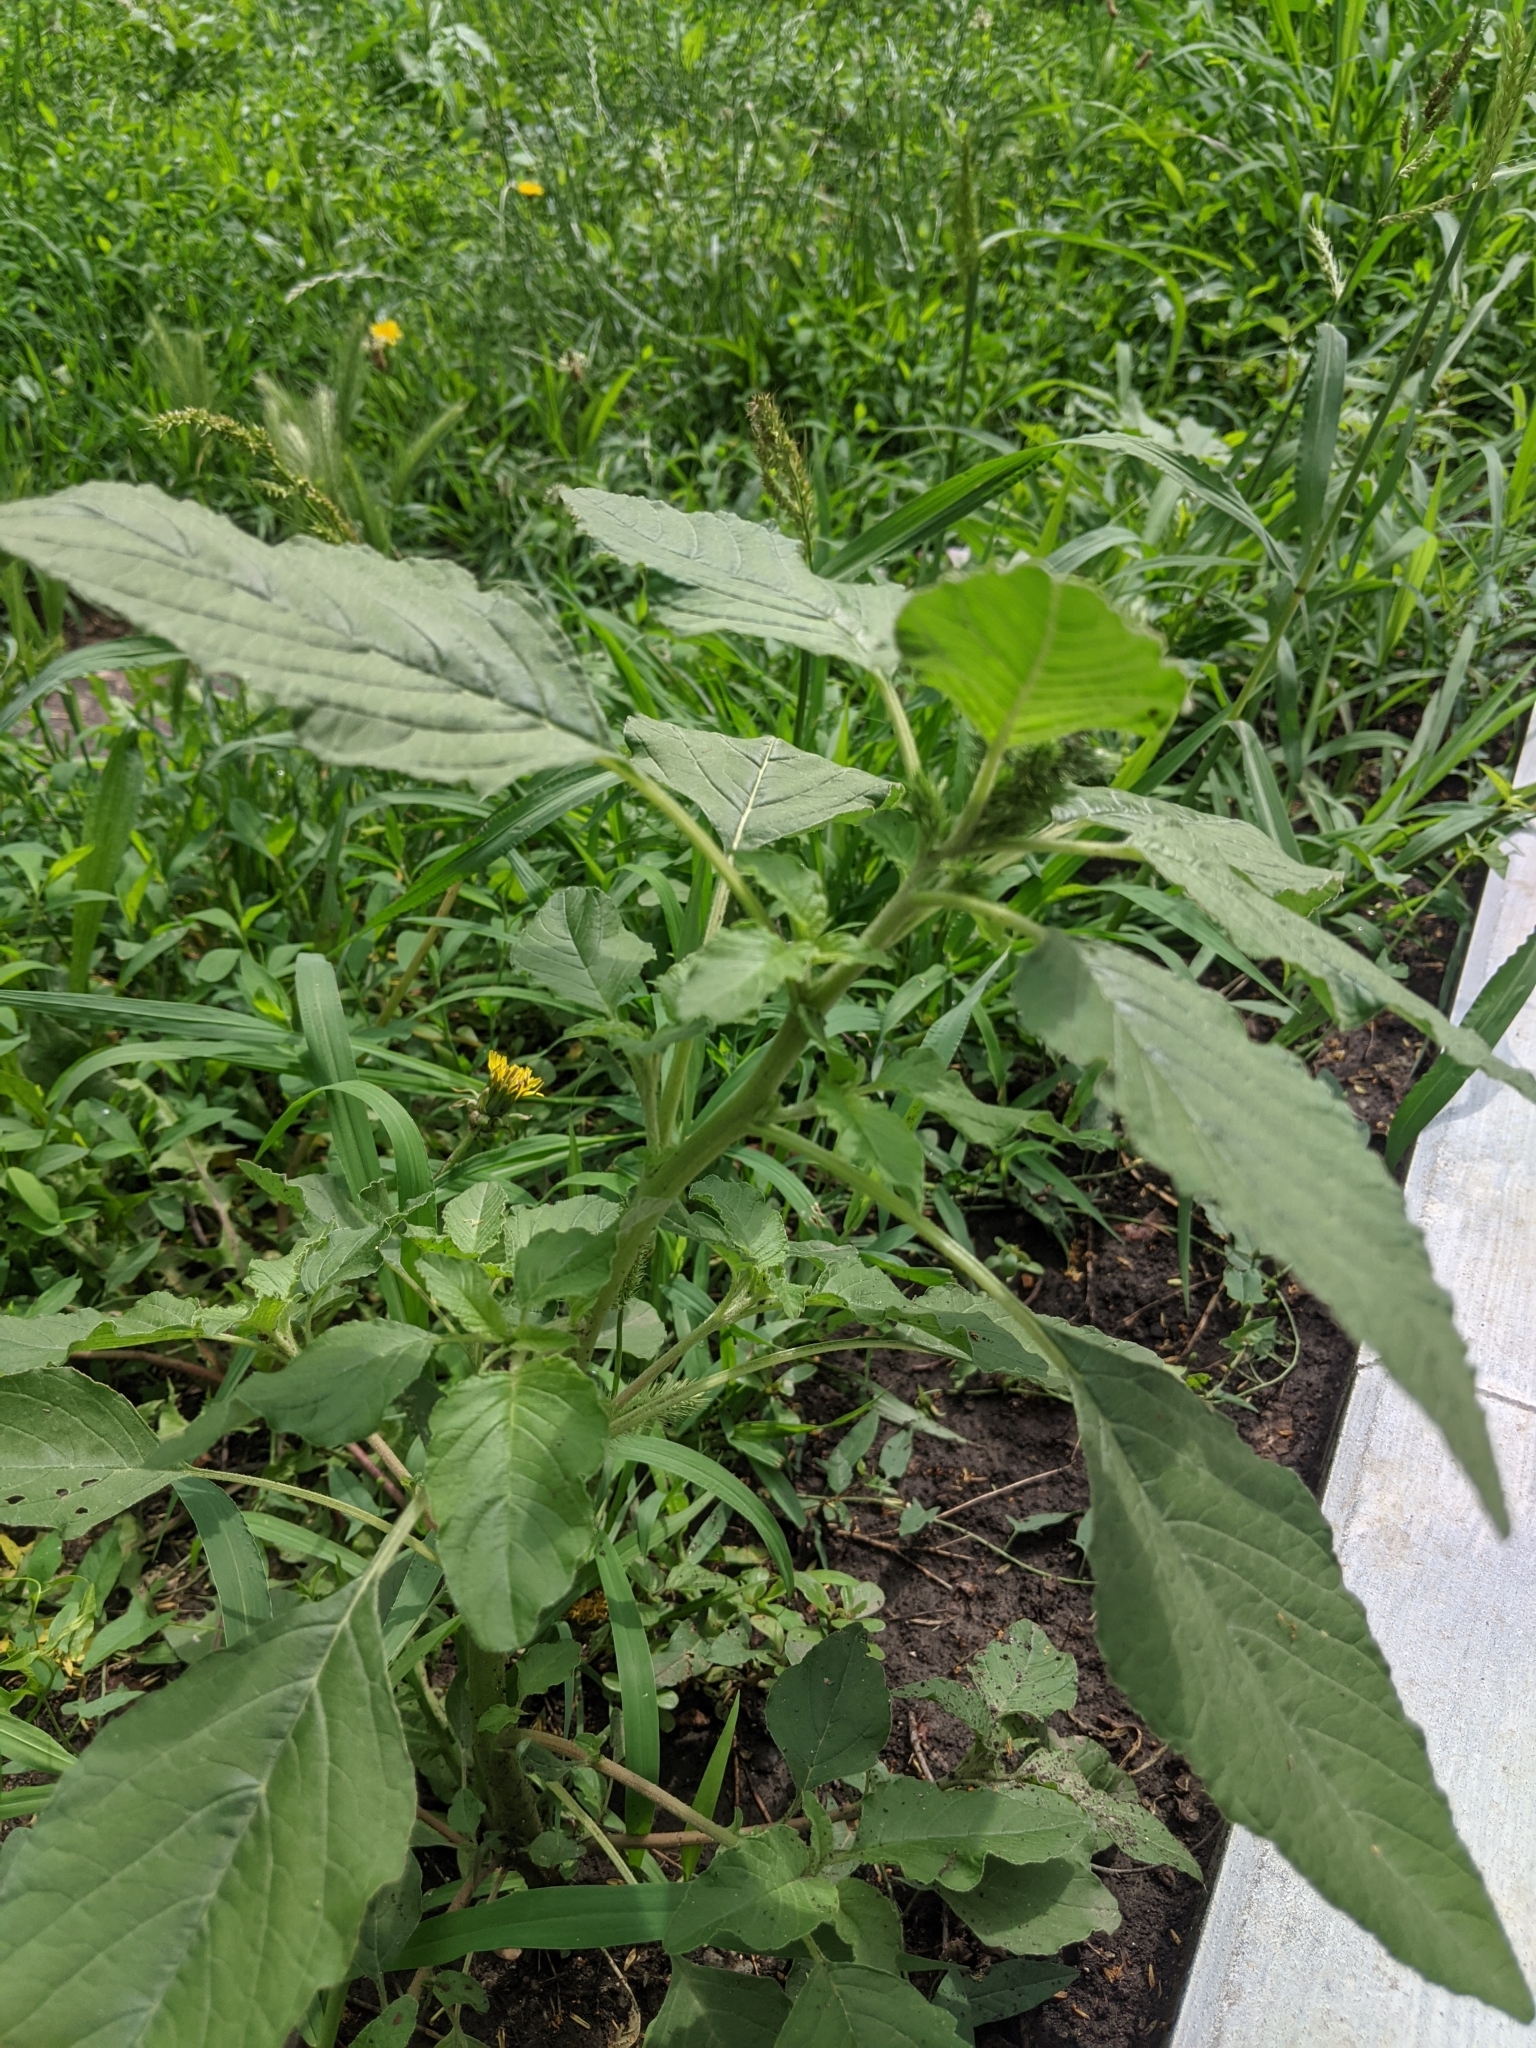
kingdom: Plantae
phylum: Tracheophyta
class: Magnoliopsida
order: Caryophyllales
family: Amaranthaceae
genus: Amaranthus
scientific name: Amaranthus retroflexus
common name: Redroot amaranth
